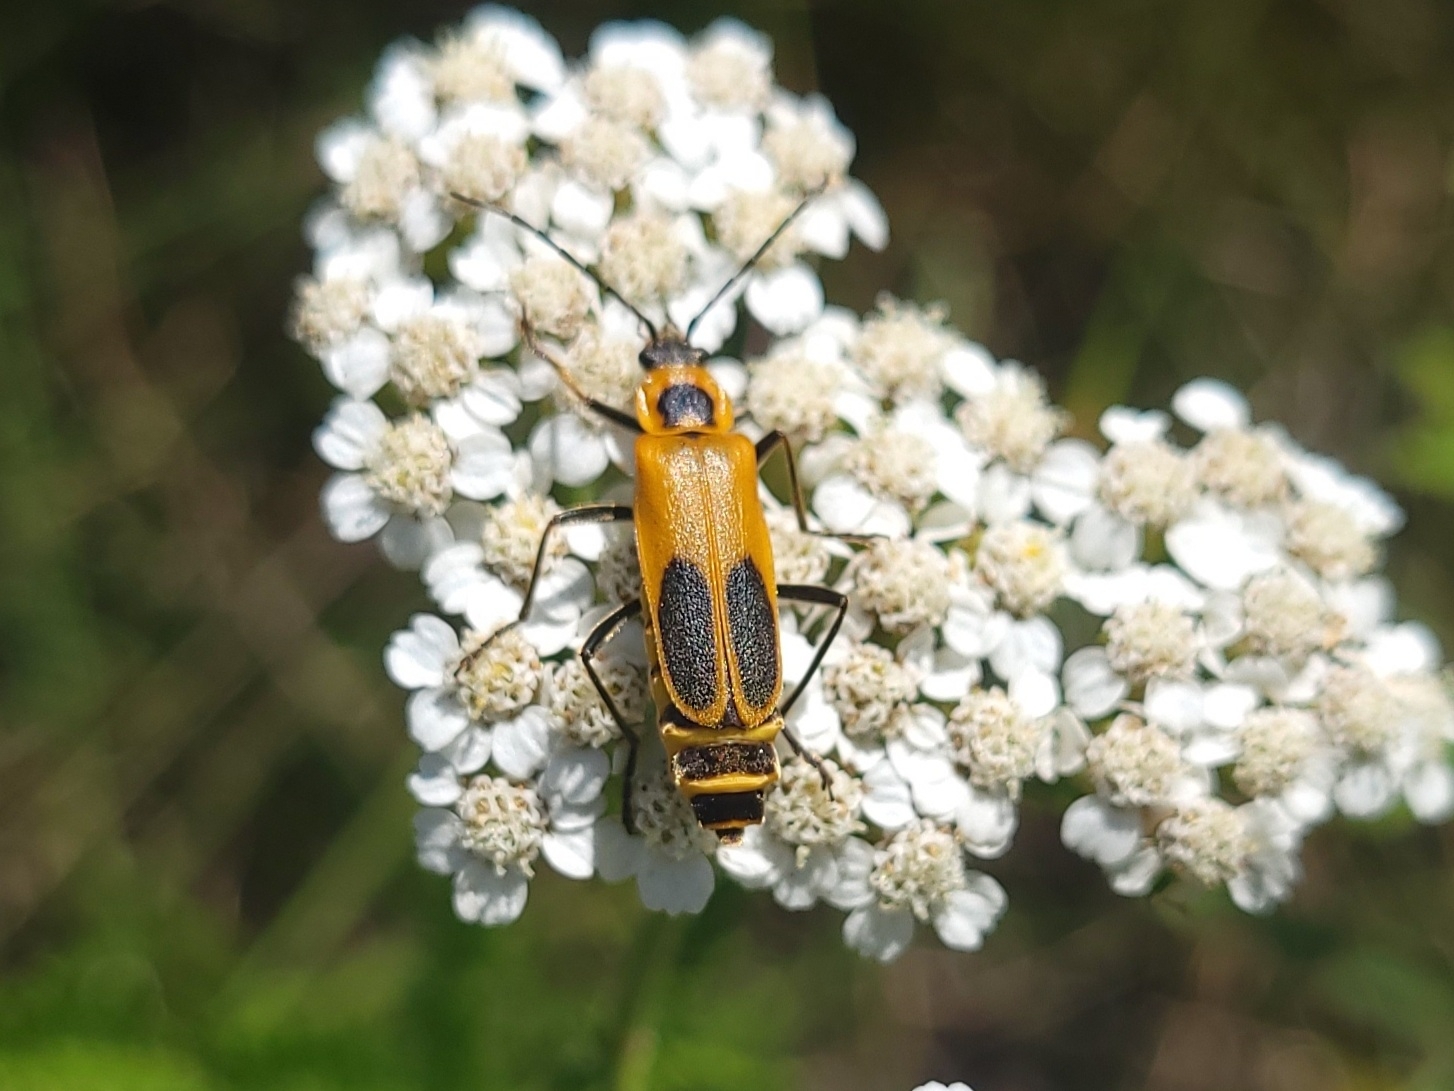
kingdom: Animalia
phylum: Arthropoda
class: Insecta
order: Coleoptera
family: Cantharidae
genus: Chauliognathus
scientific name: Chauliognathus pensylvanicus
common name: Goldenrod soldier beetle
